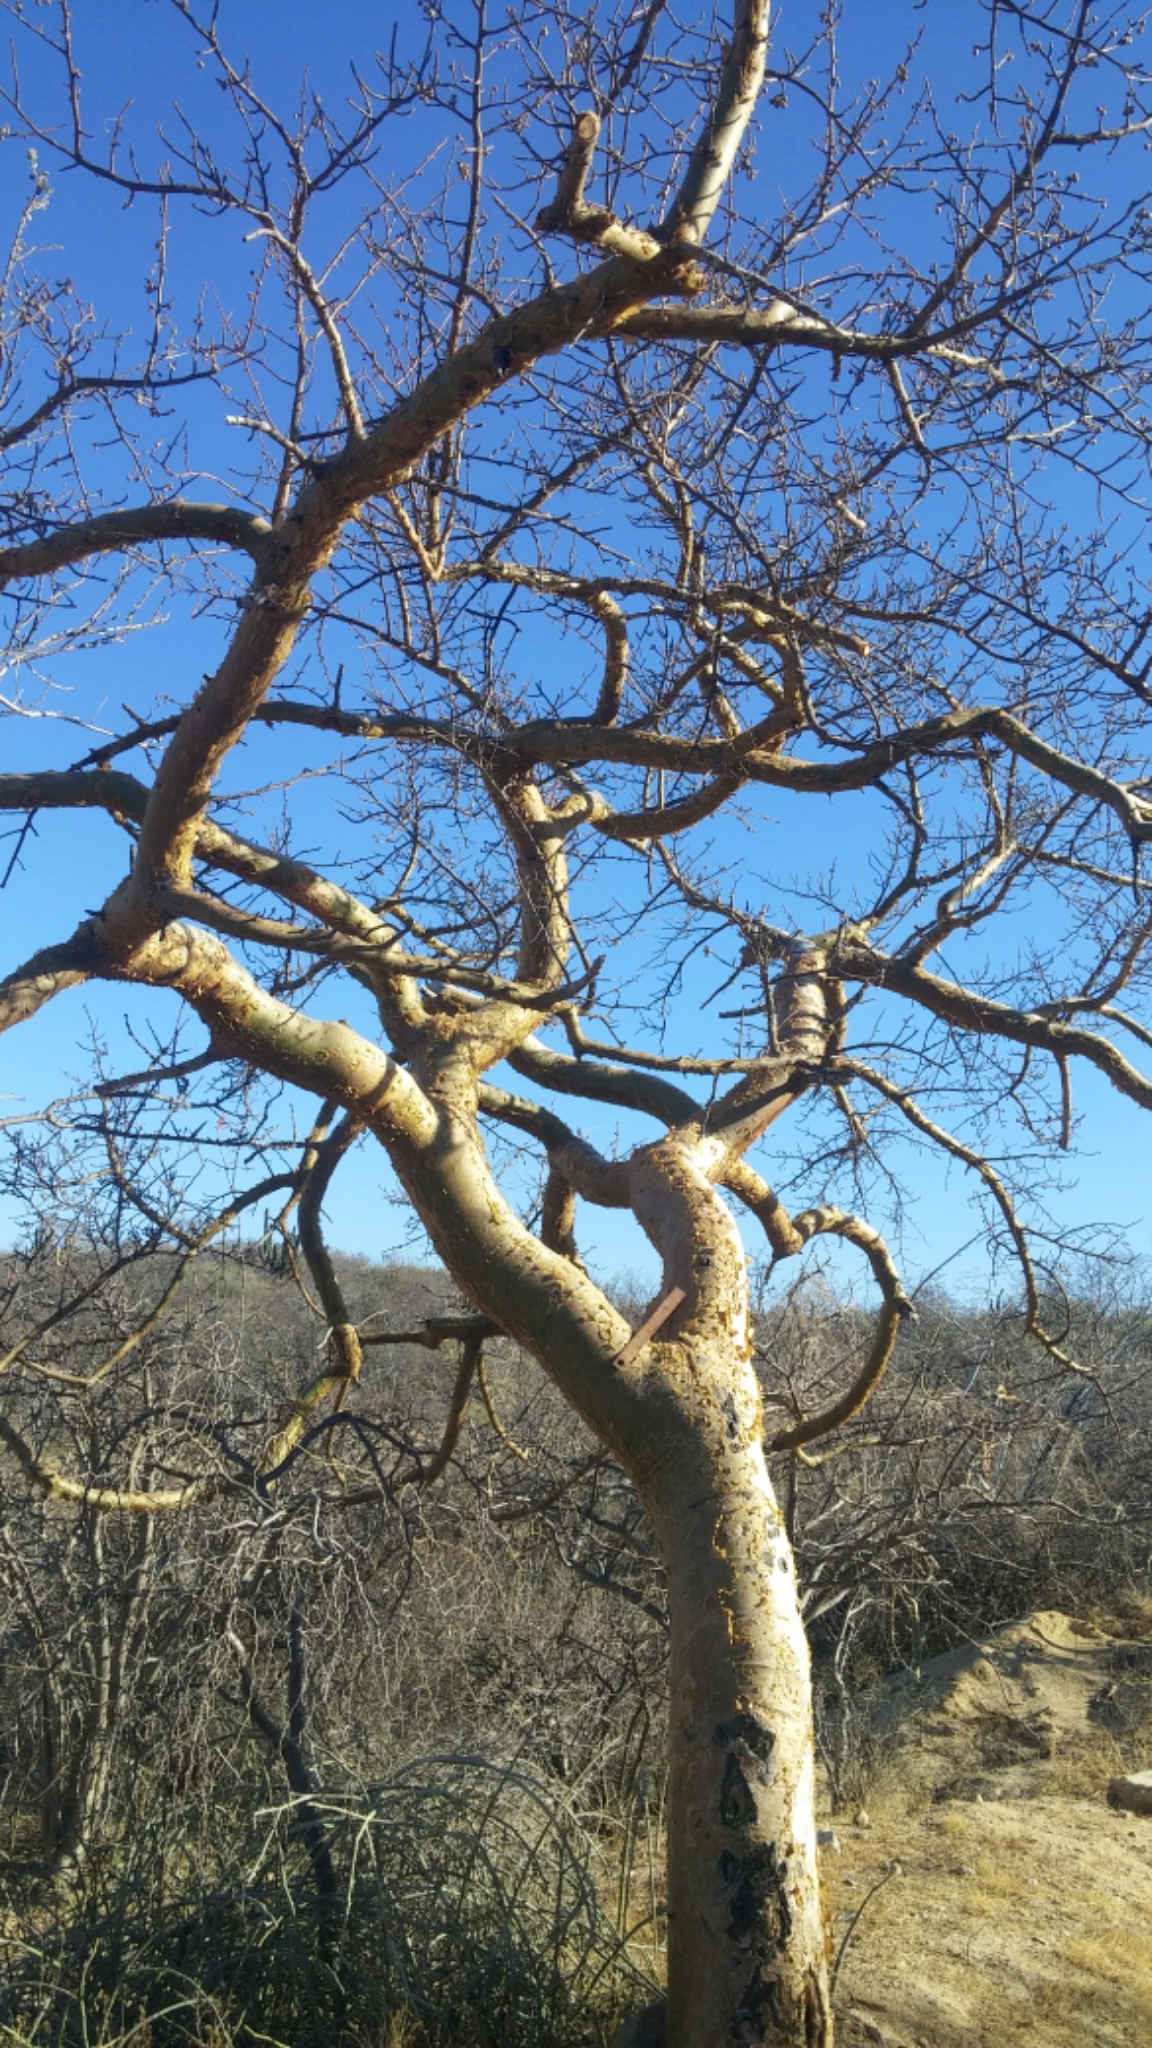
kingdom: Plantae
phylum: Tracheophyta
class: Magnoliopsida
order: Sapindales
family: Burseraceae
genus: Bursera
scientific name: Bursera microphylla
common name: Elephant tree
